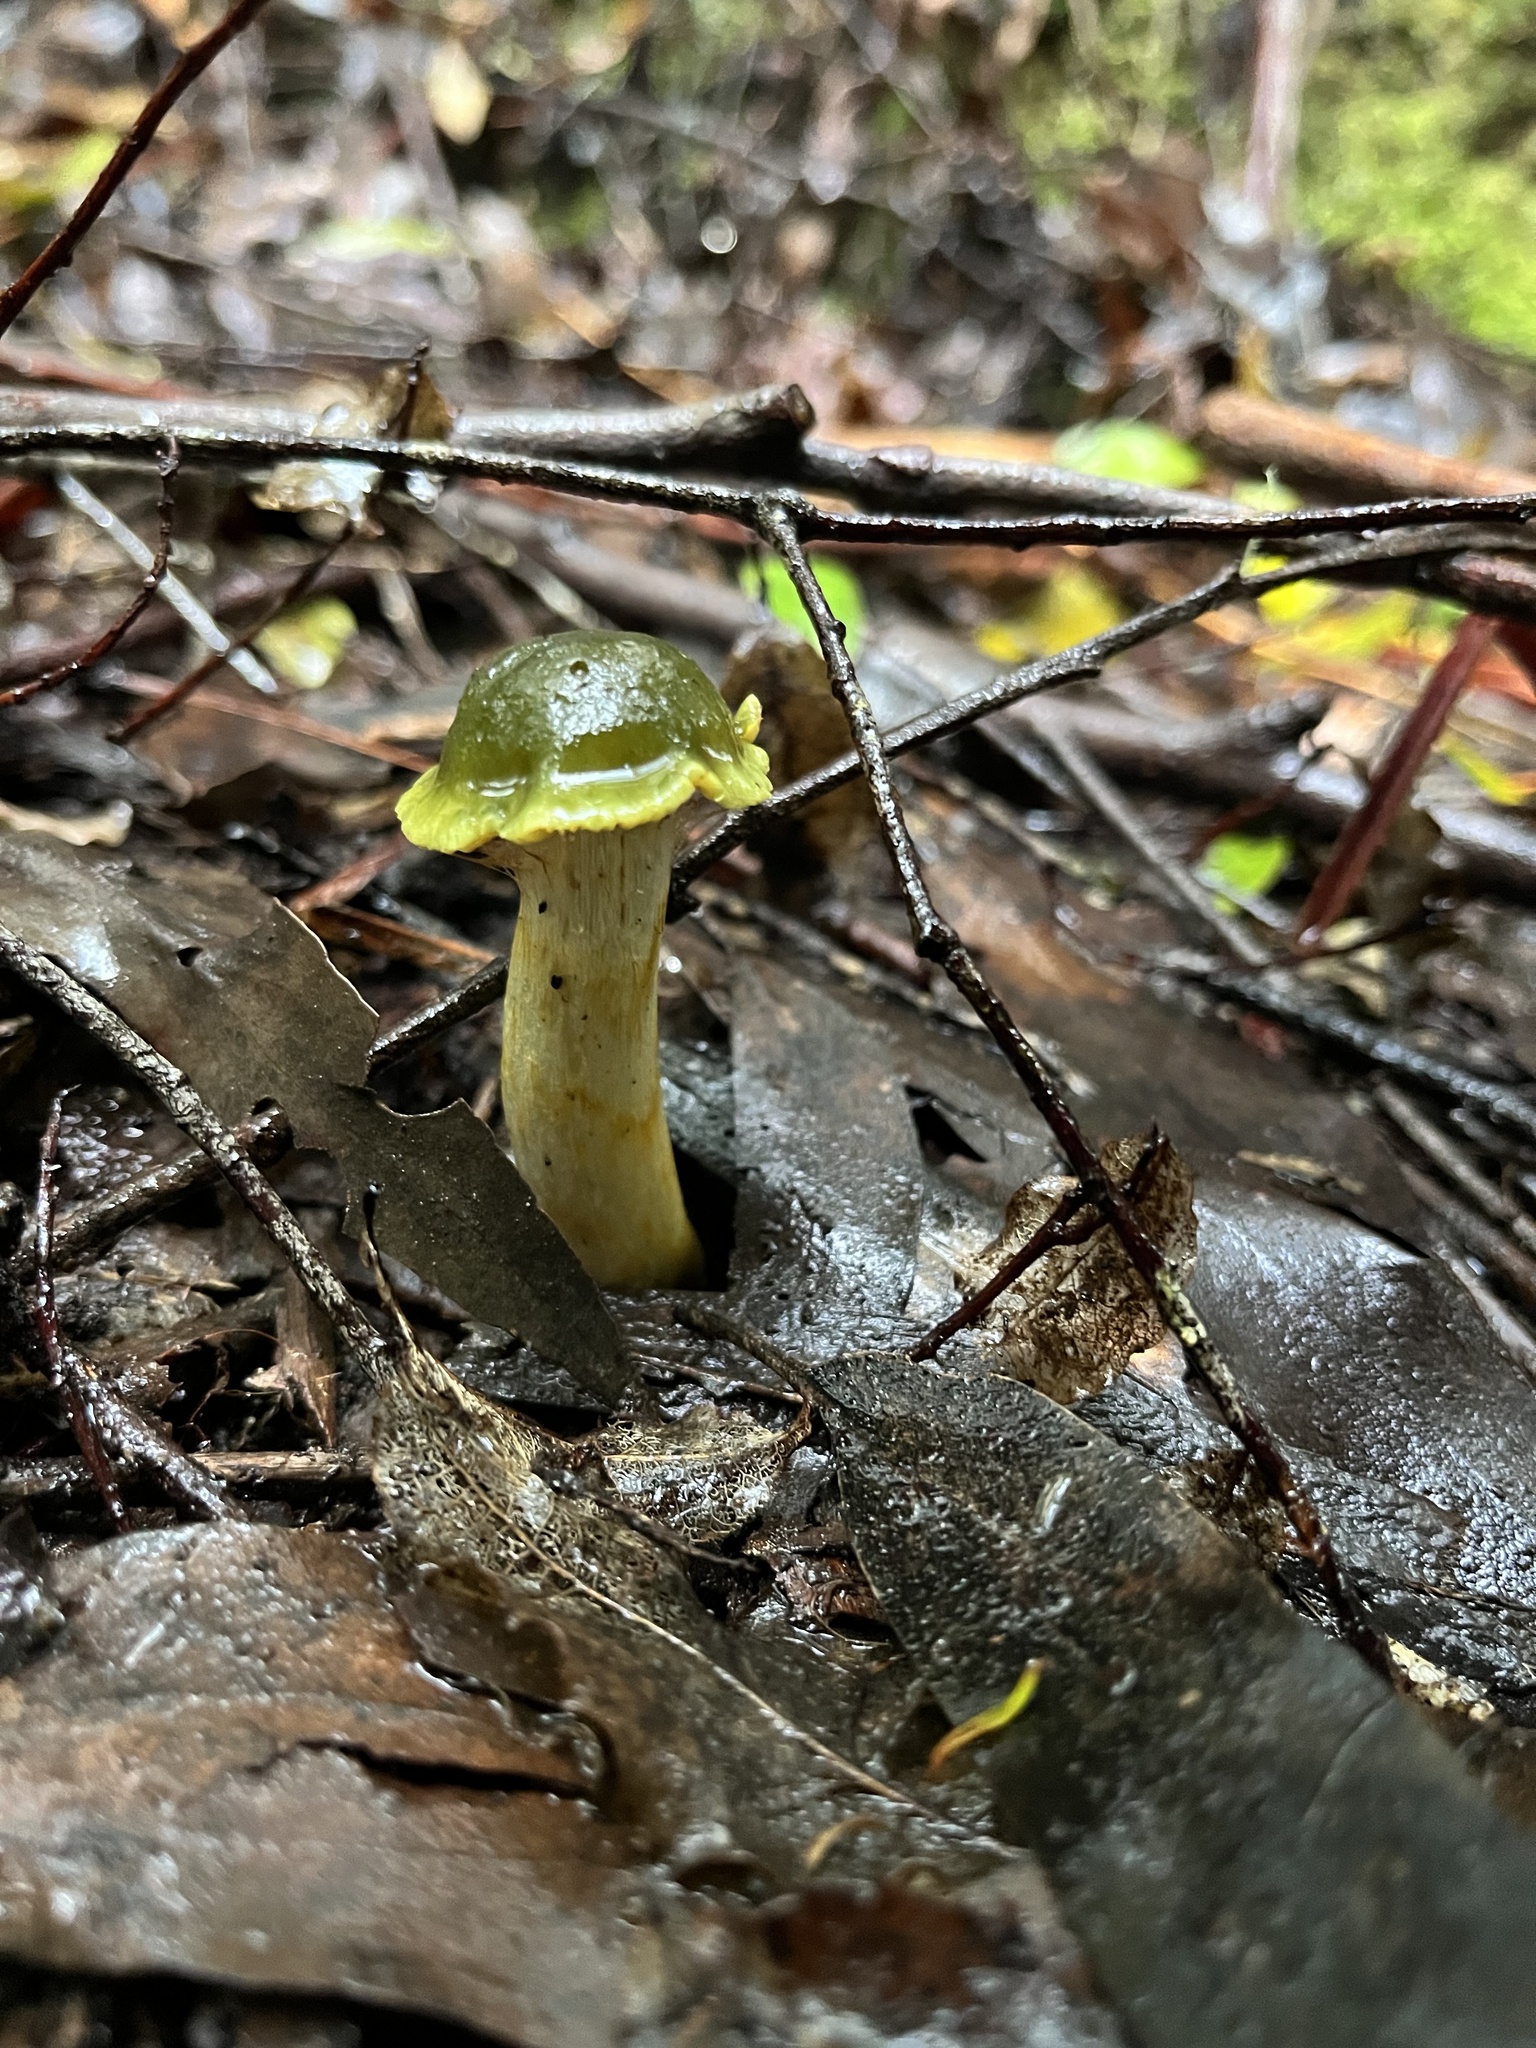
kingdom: Fungi
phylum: Basidiomycota
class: Agaricomycetes
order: Agaricales
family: Cortinariaceae
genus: Cortinarius
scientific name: Cortinarius austrovenetus
